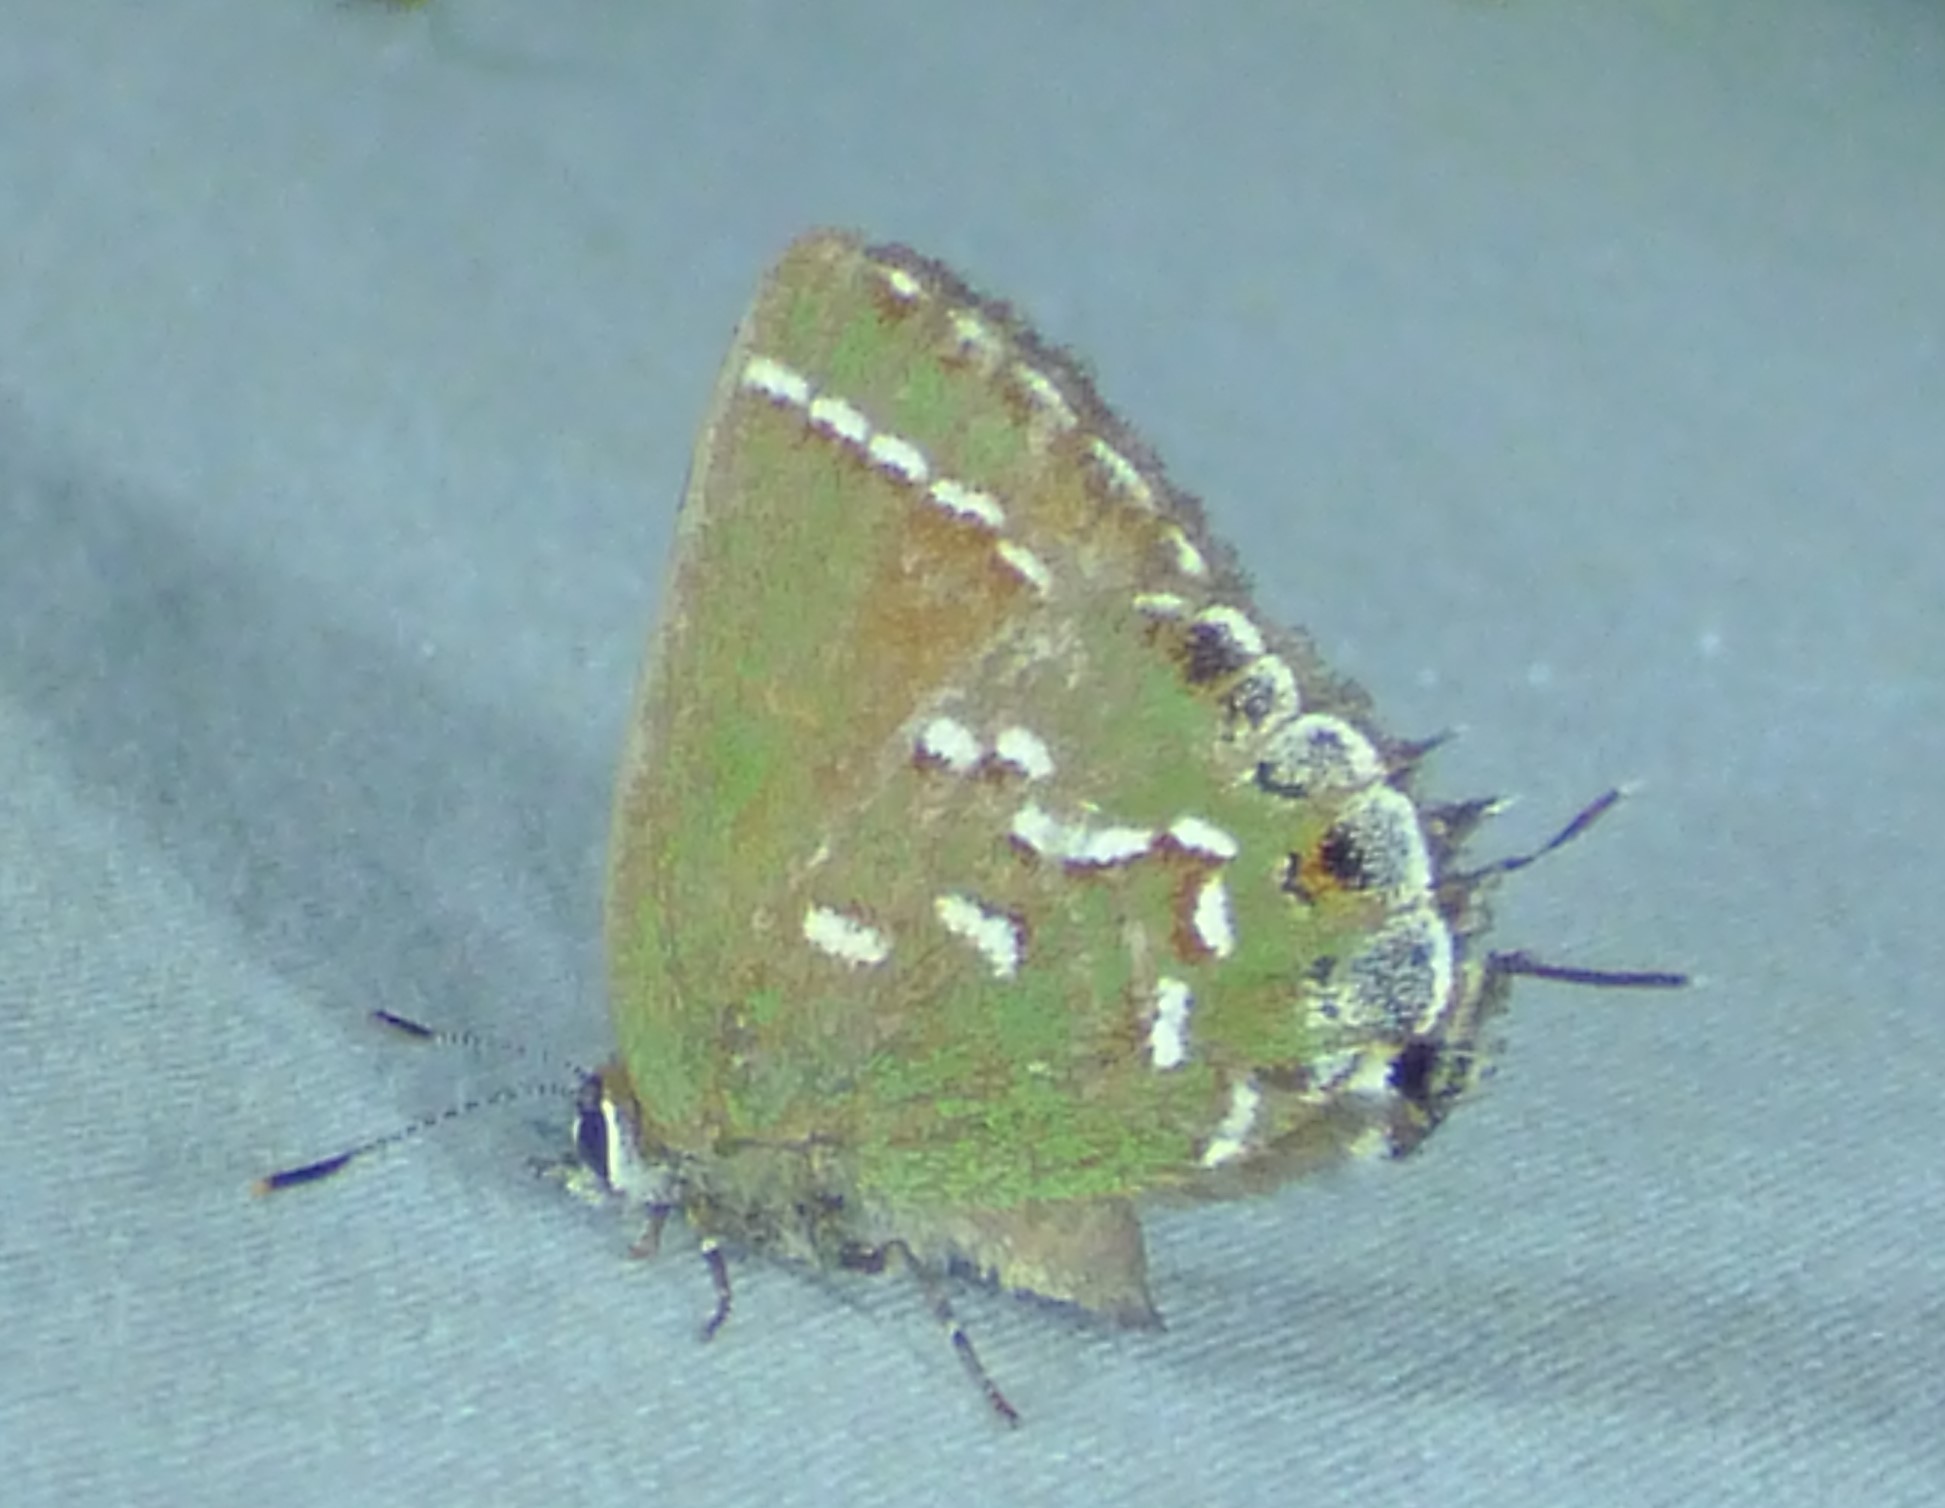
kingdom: Animalia
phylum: Arthropoda
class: Insecta
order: Lepidoptera
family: Lycaenidae
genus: Mitoura
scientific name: Mitoura gryneus
